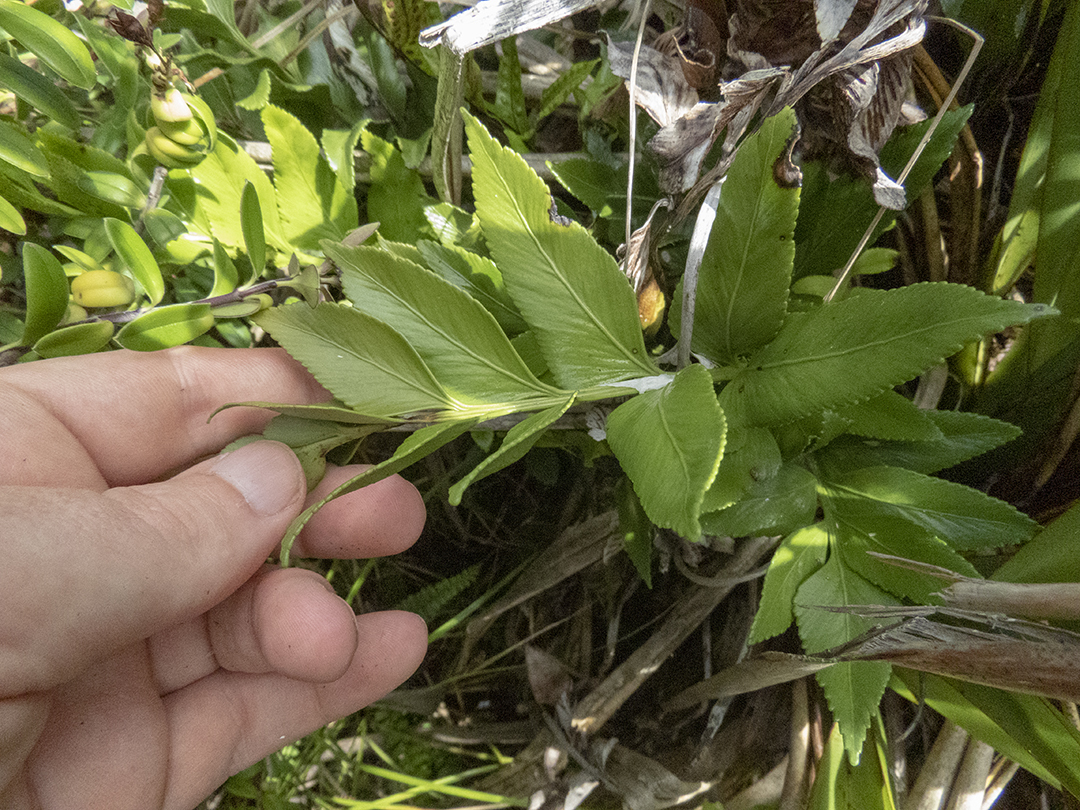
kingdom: Plantae
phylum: Tracheophyta
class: Polypodiopsida
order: Polypodiales
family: Aspleniaceae
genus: Asplenium
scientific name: Asplenium obtusatum
